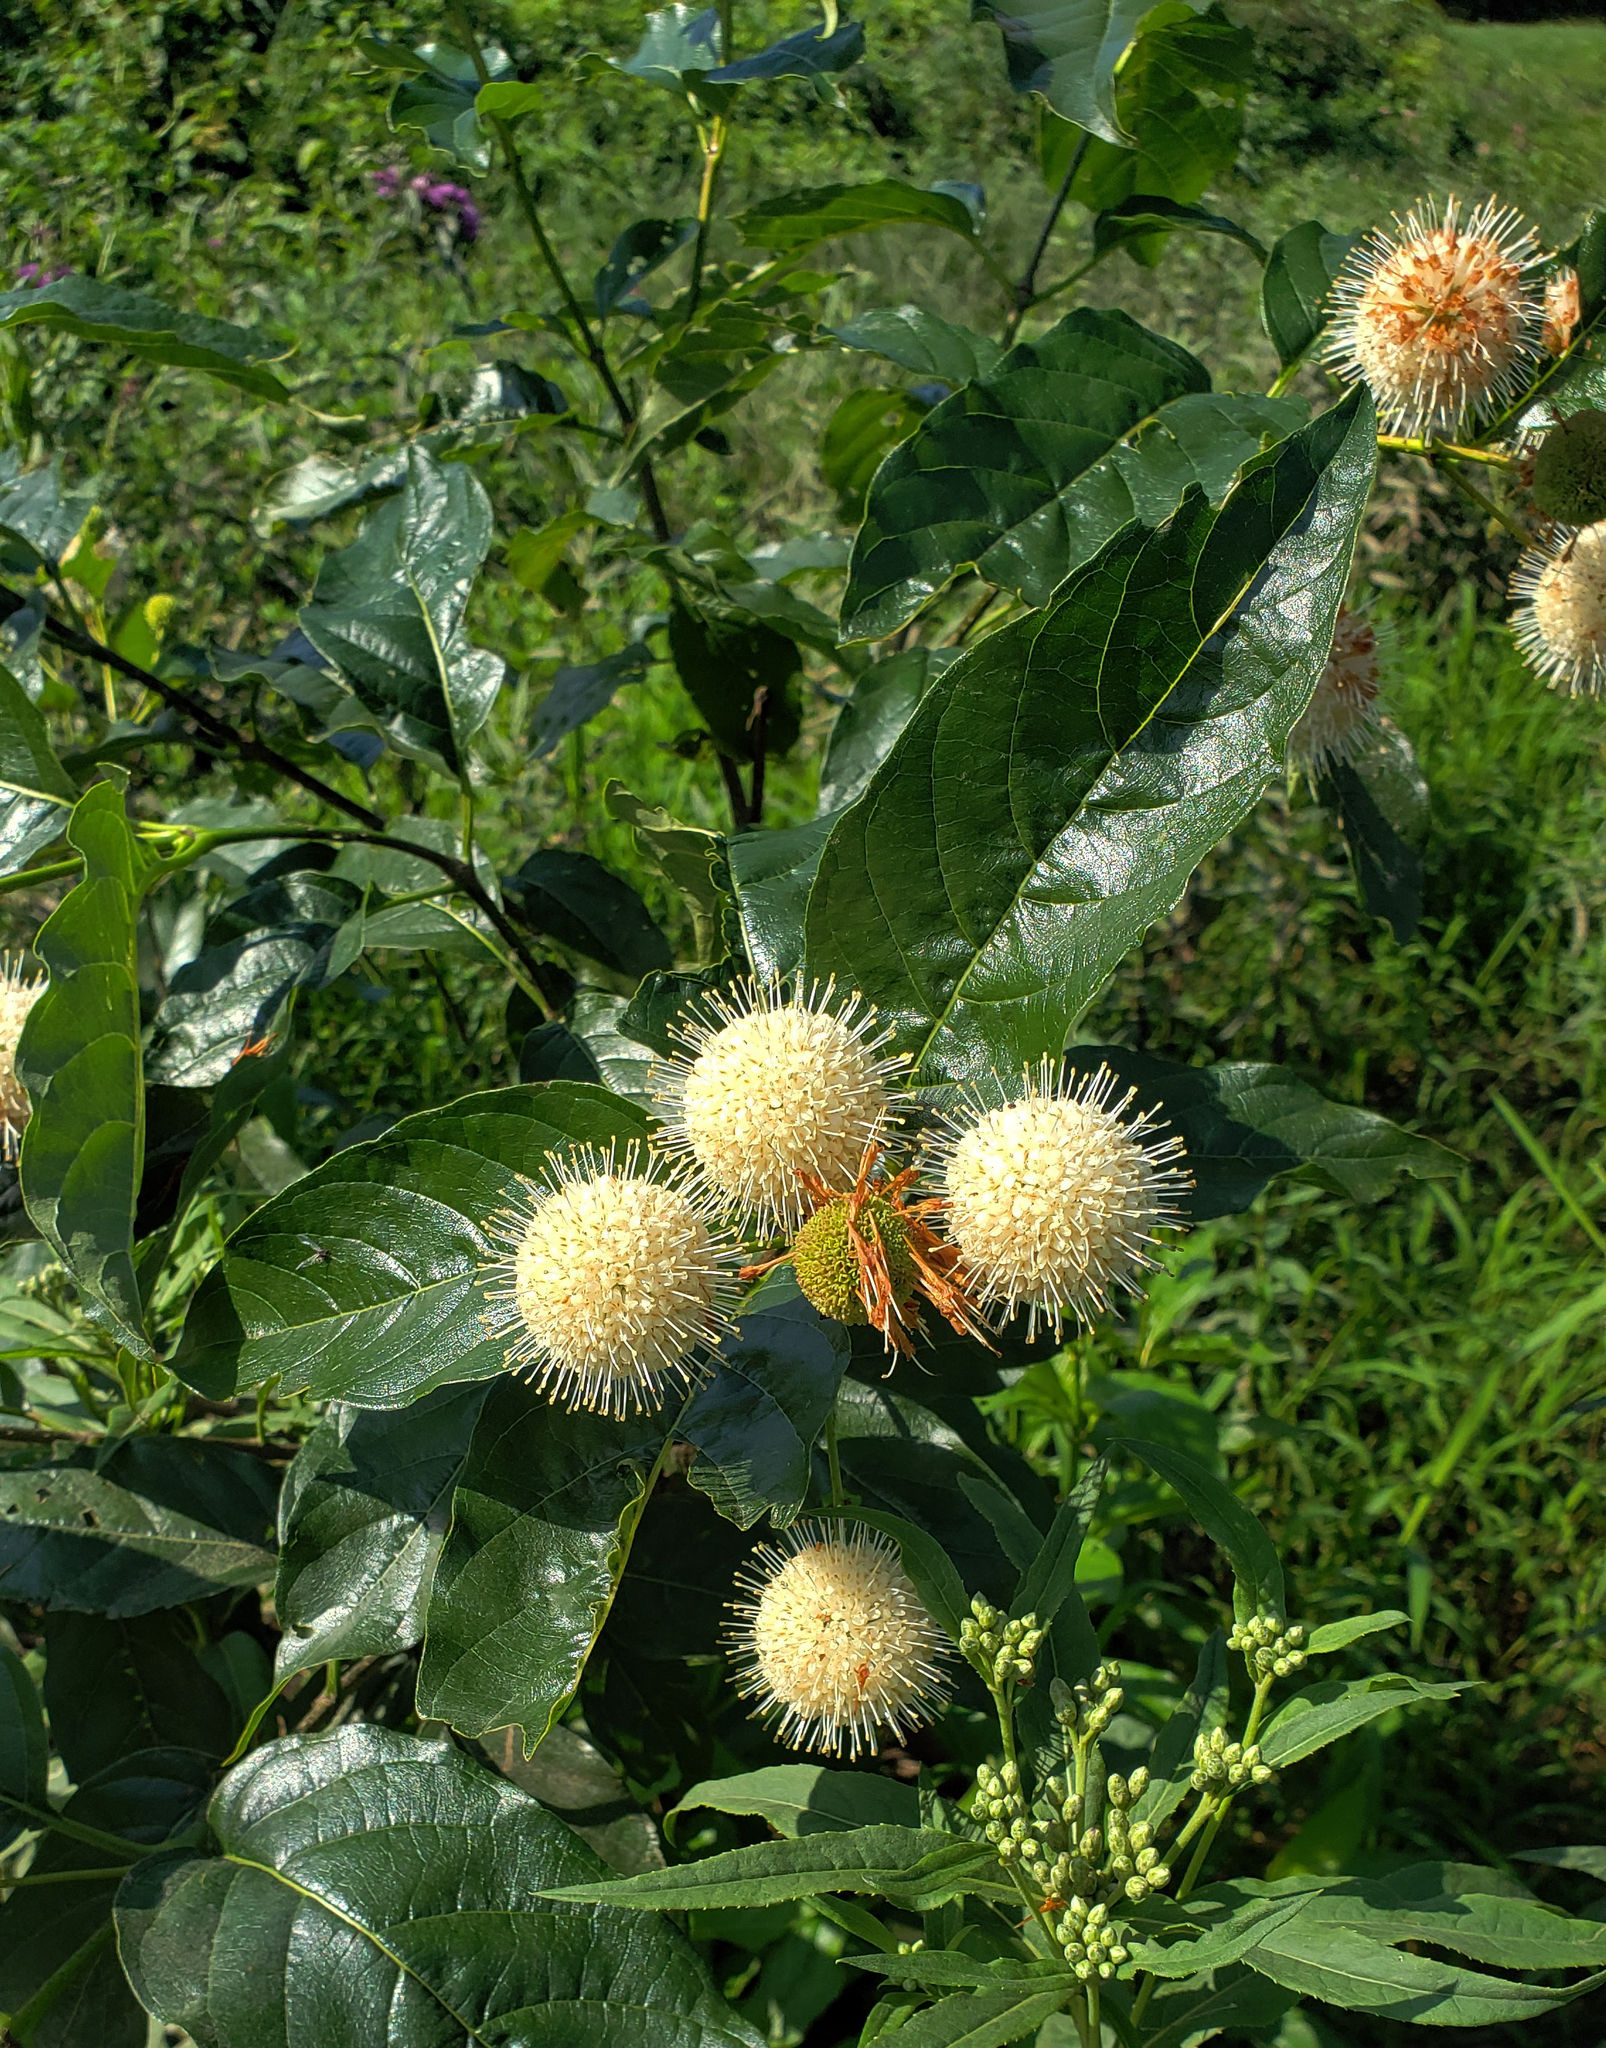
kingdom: Plantae
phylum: Tracheophyta
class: Magnoliopsida
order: Gentianales
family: Rubiaceae
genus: Cephalanthus
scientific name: Cephalanthus occidentalis
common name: Button-willow
